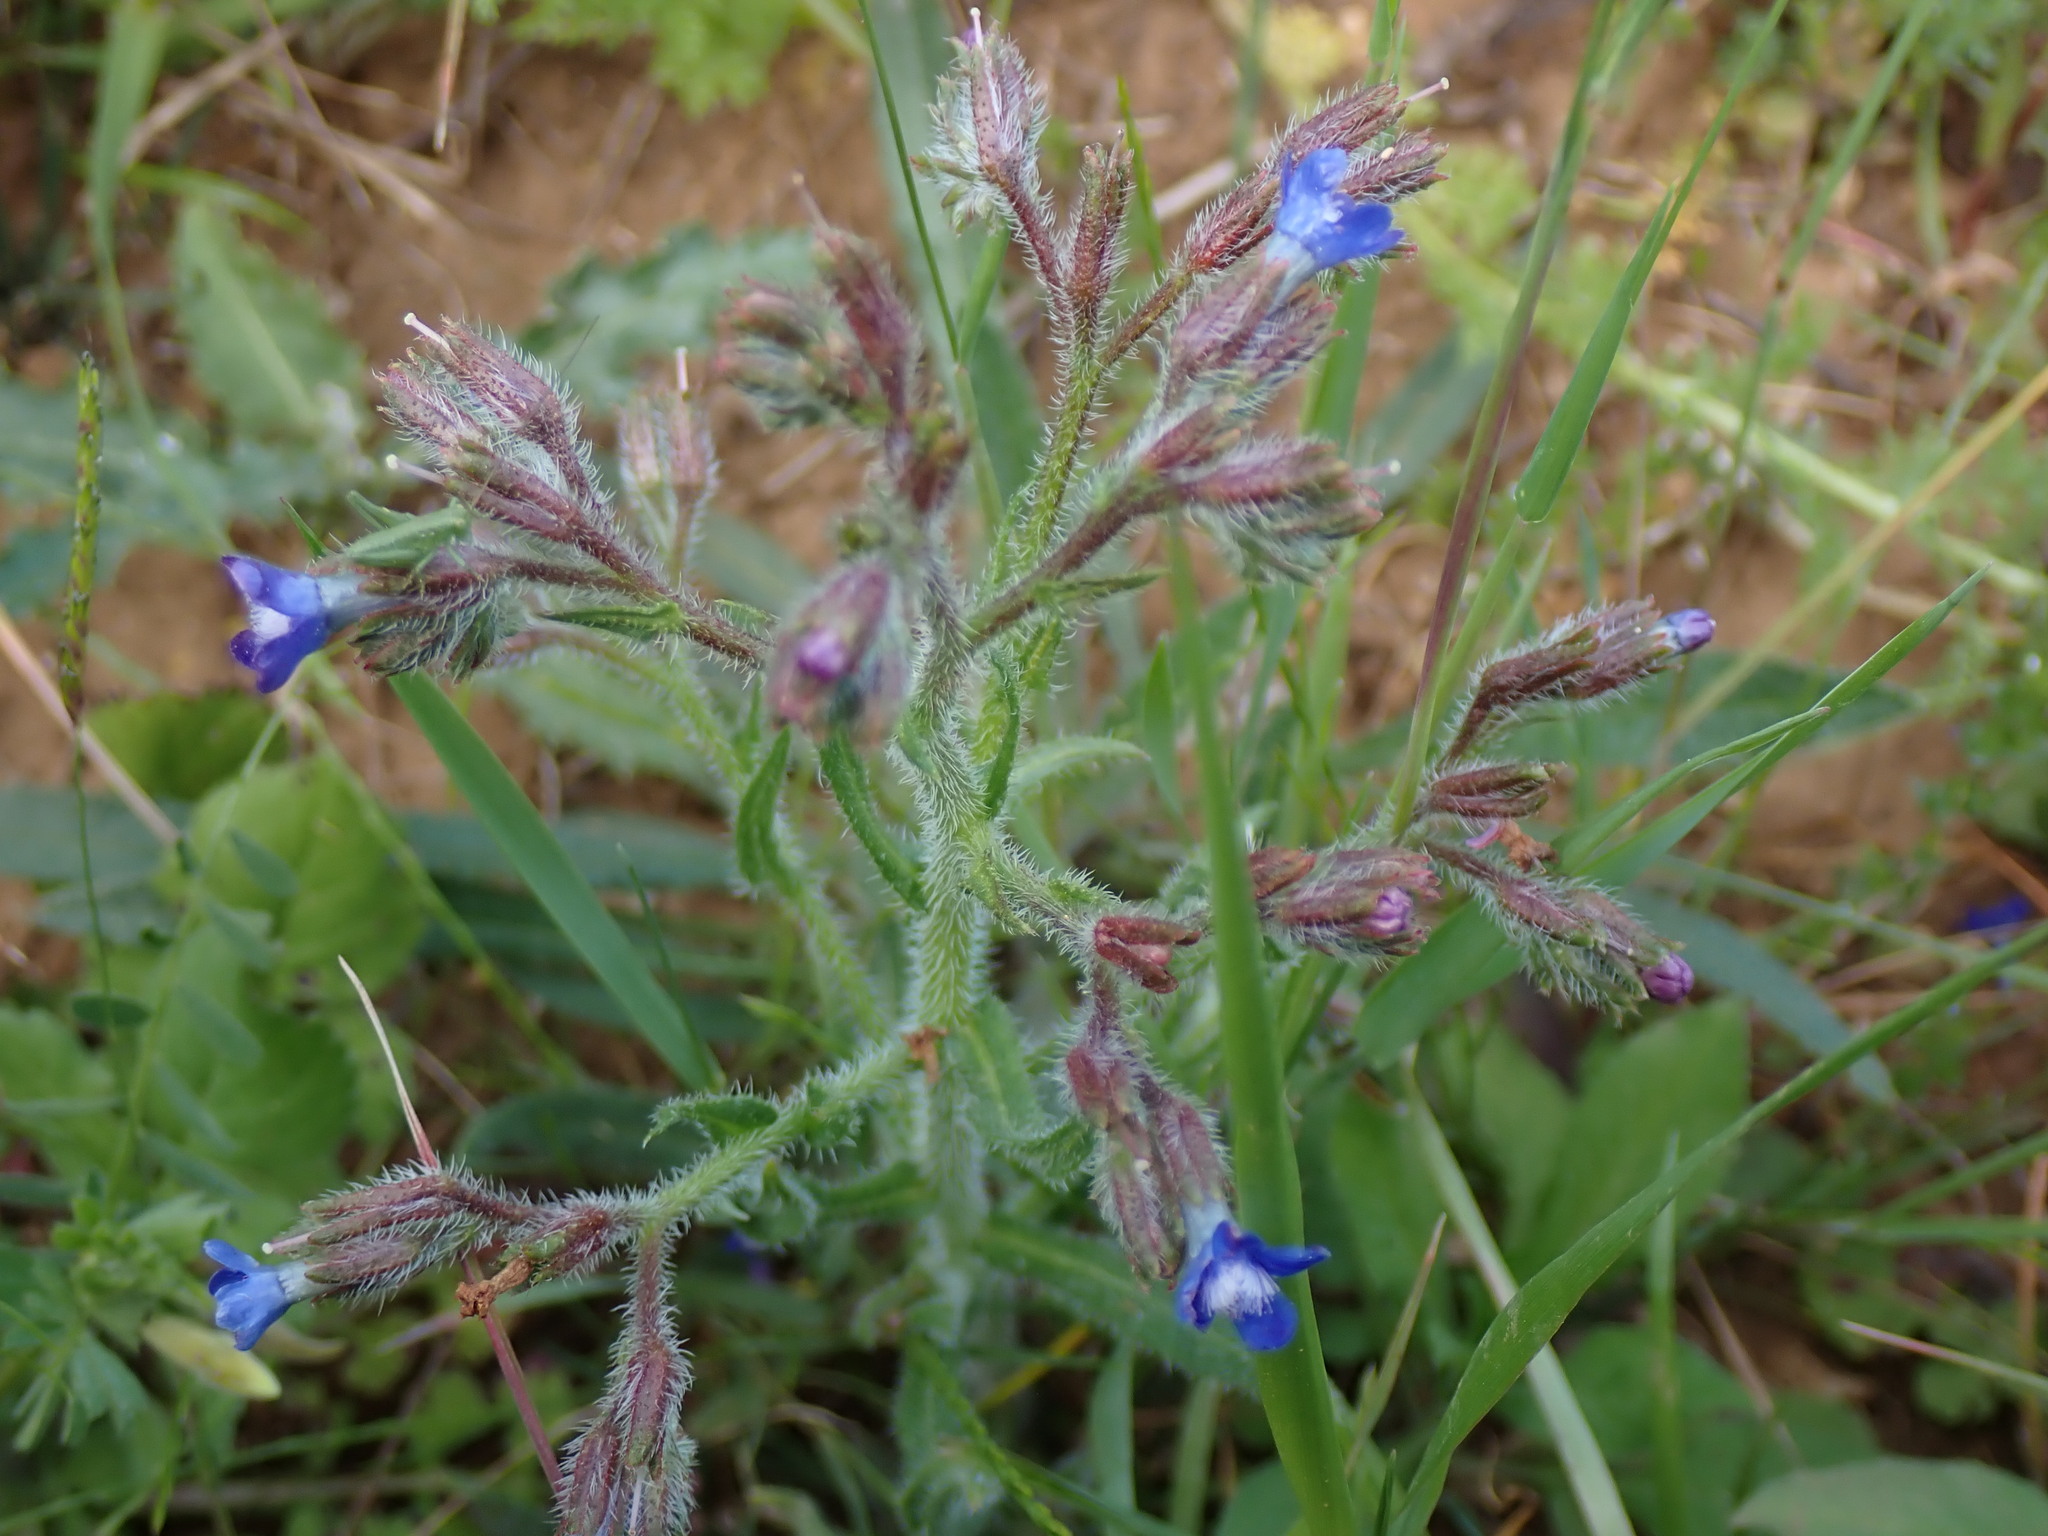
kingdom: Plantae
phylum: Tracheophyta
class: Magnoliopsida
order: Boraginales
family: Boraginaceae
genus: Anchusa
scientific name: Anchusa azurea
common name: Garden anchusa
